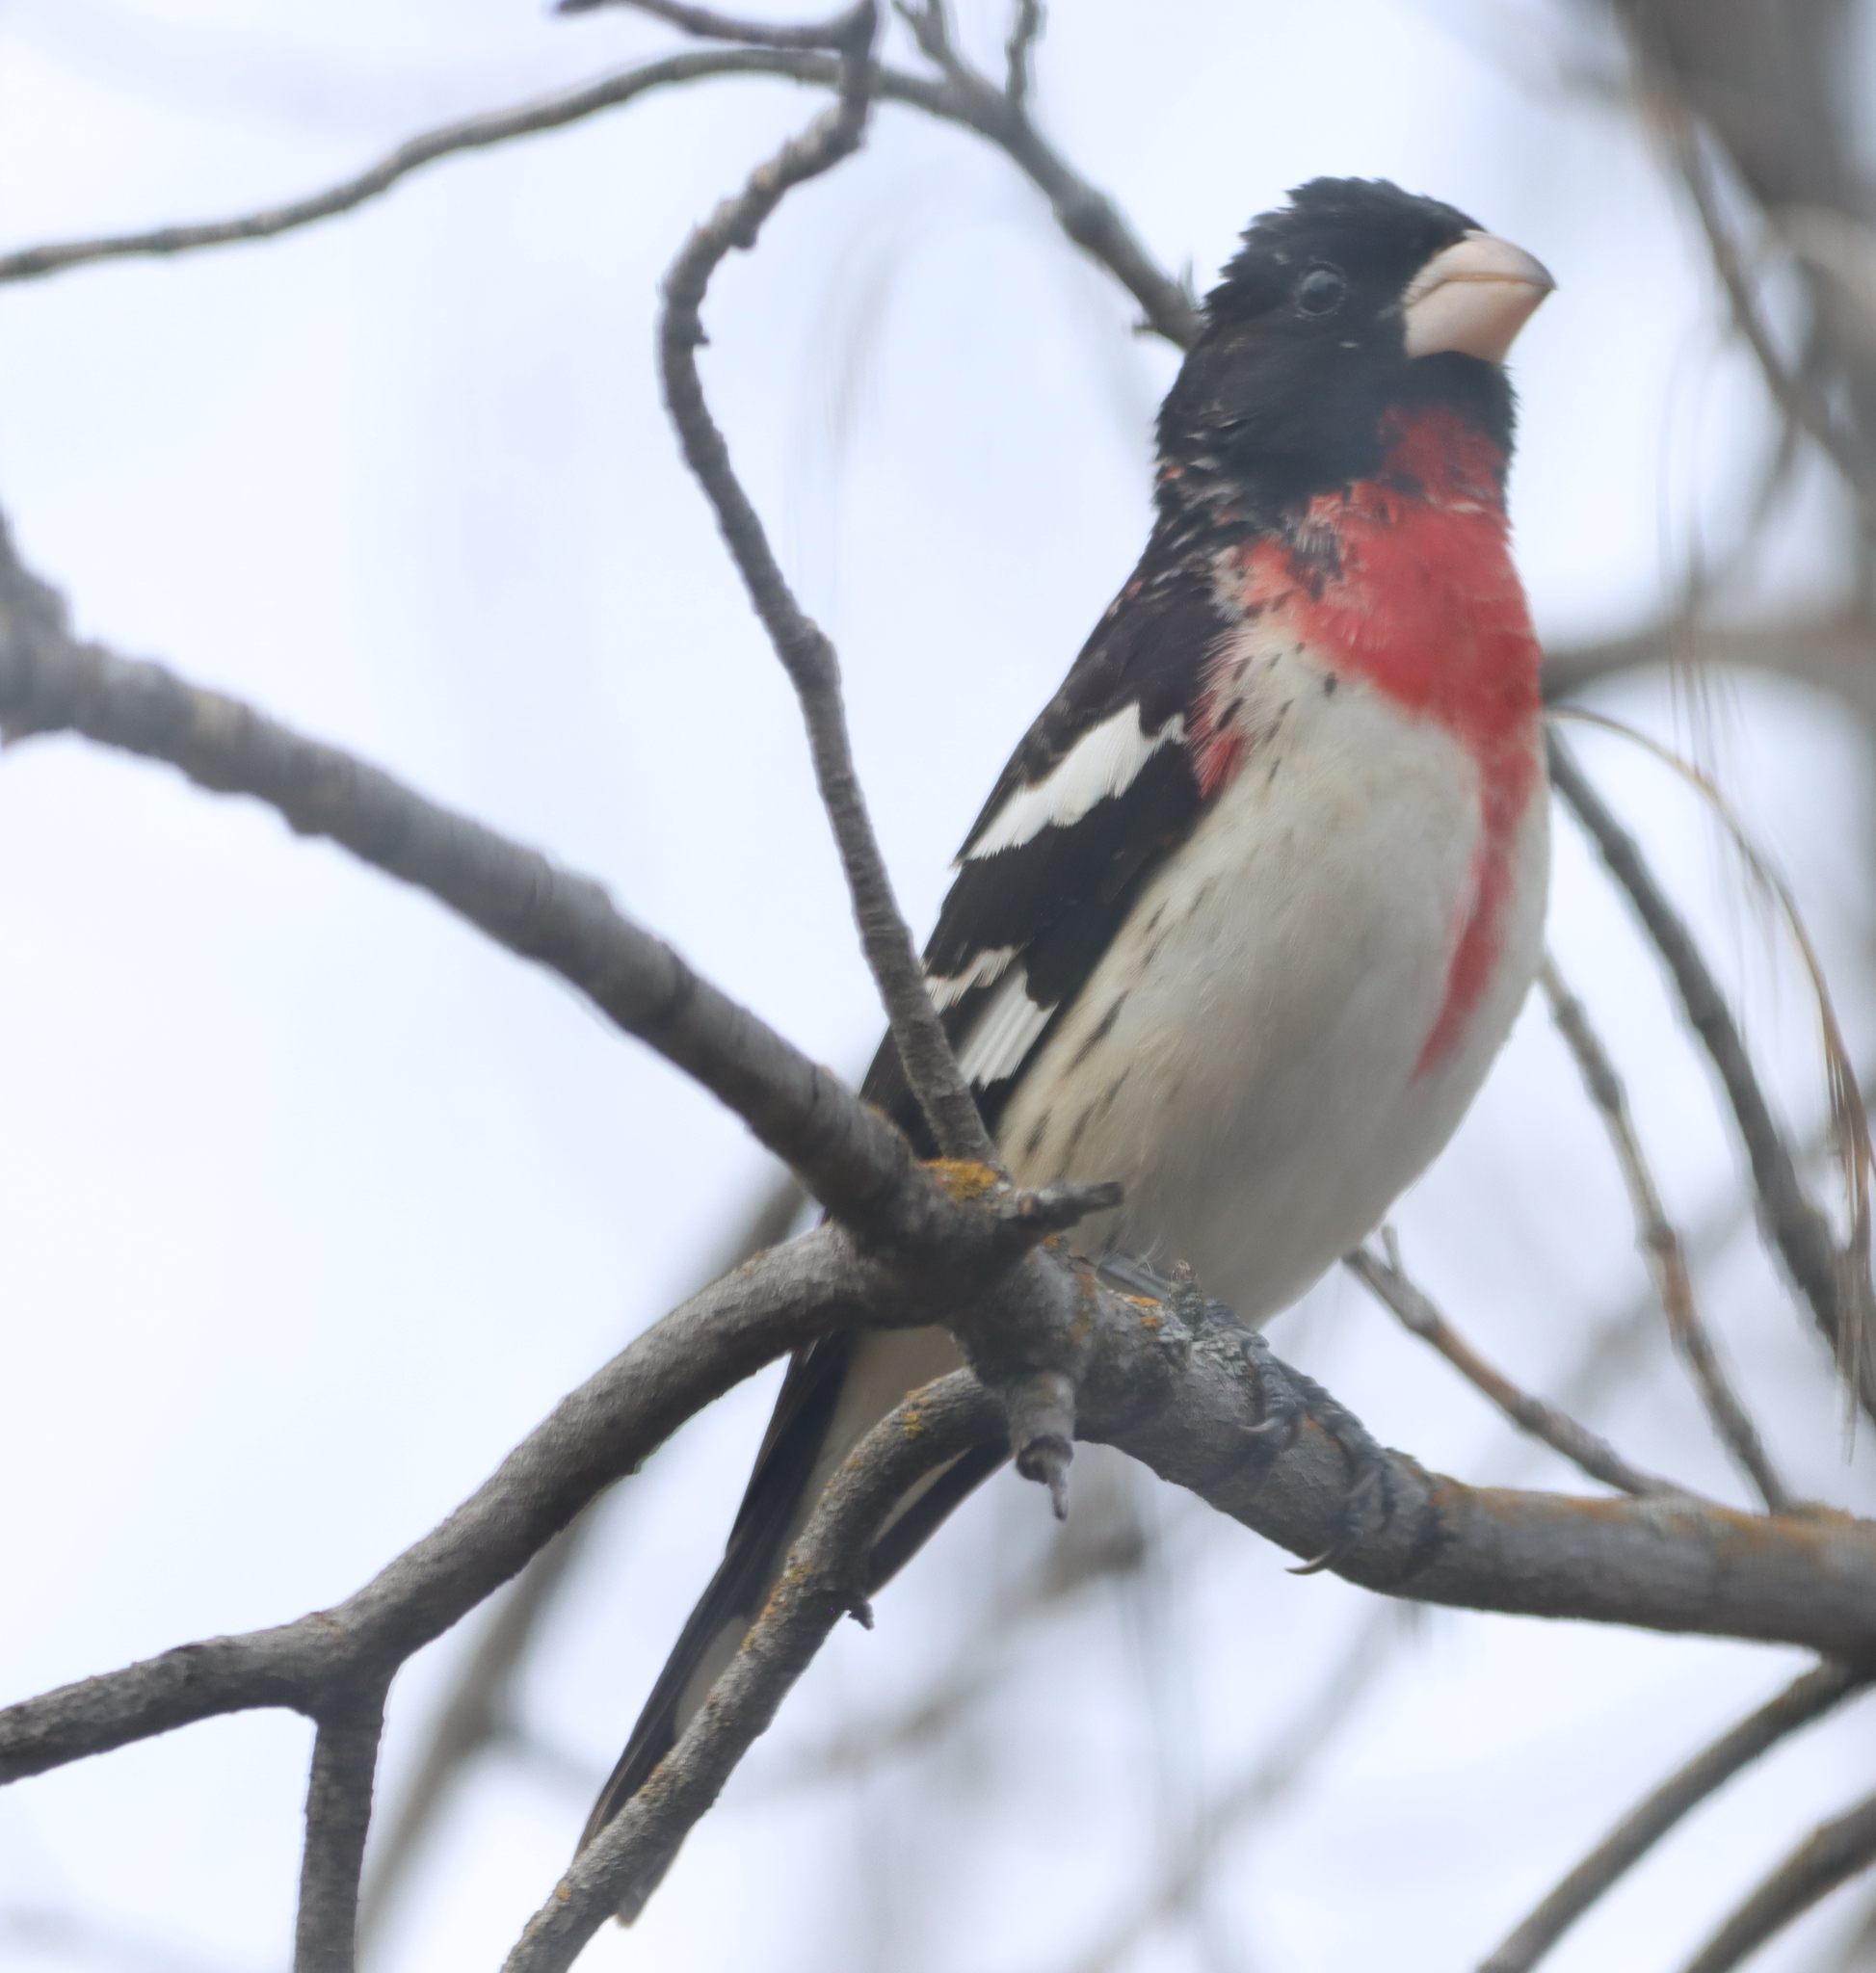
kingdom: Animalia
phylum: Chordata
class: Aves
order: Passeriformes
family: Cardinalidae
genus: Pheucticus
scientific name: Pheucticus ludovicianus
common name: Rose-breasted grosbeak
